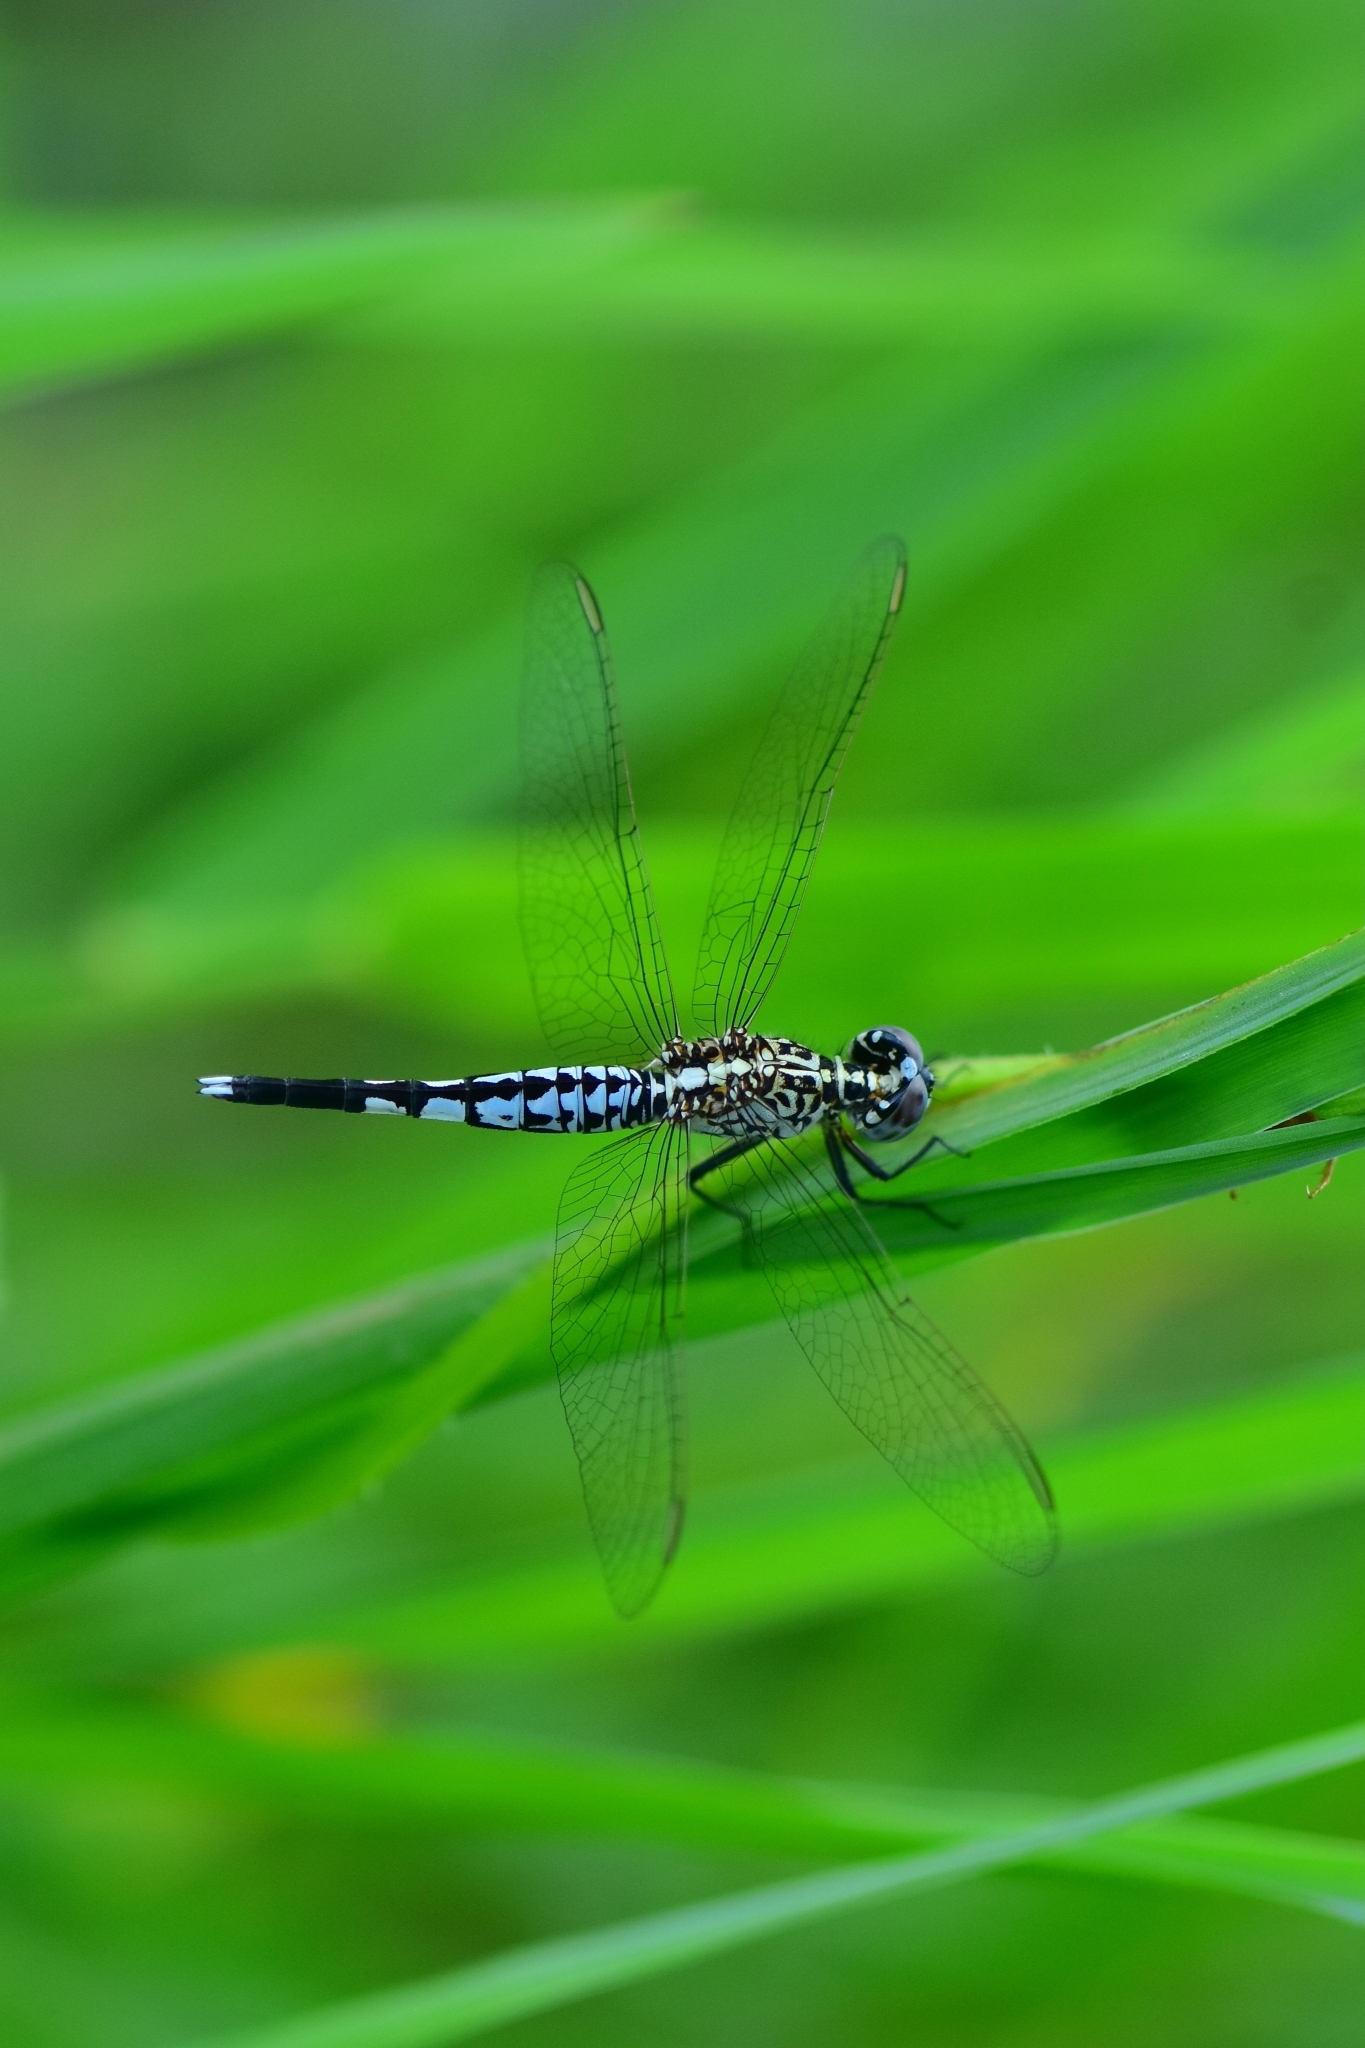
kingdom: Animalia
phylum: Arthropoda
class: Insecta
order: Odonata
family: Libellulidae
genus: Acisoma
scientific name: Acisoma panorpoides
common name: Asian pintail
